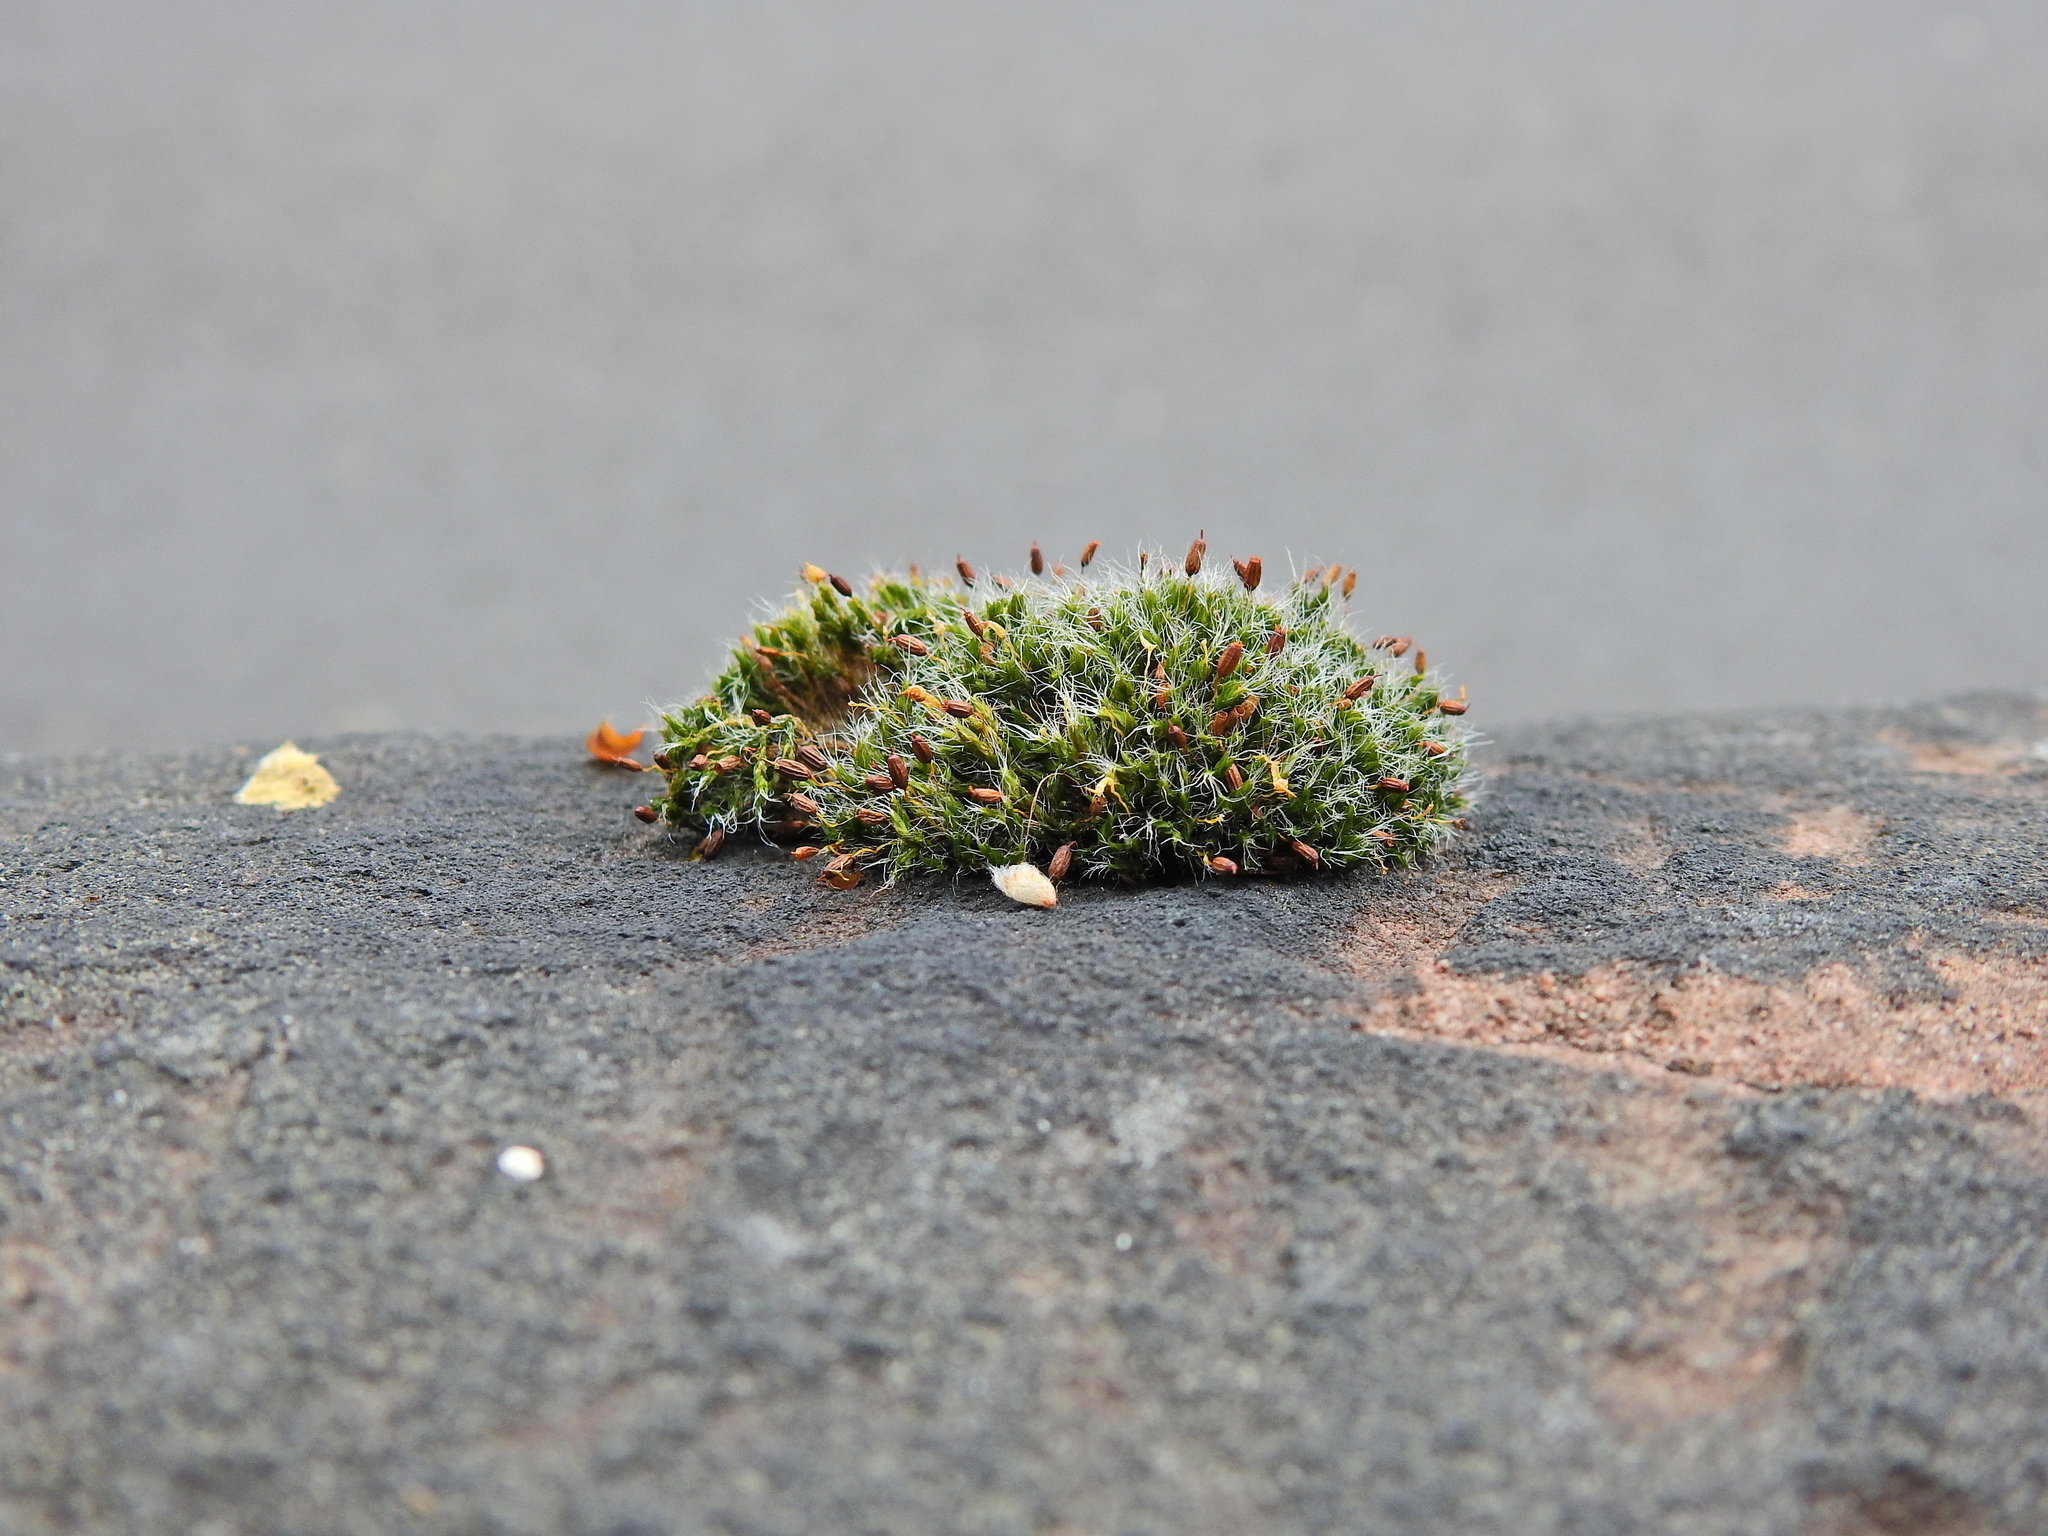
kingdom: Plantae
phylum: Bryophyta
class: Bryopsida
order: Grimmiales
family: Grimmiaceae
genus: Grimmia
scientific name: Grimmia pulvinata
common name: Grey-cushioned grimmia
